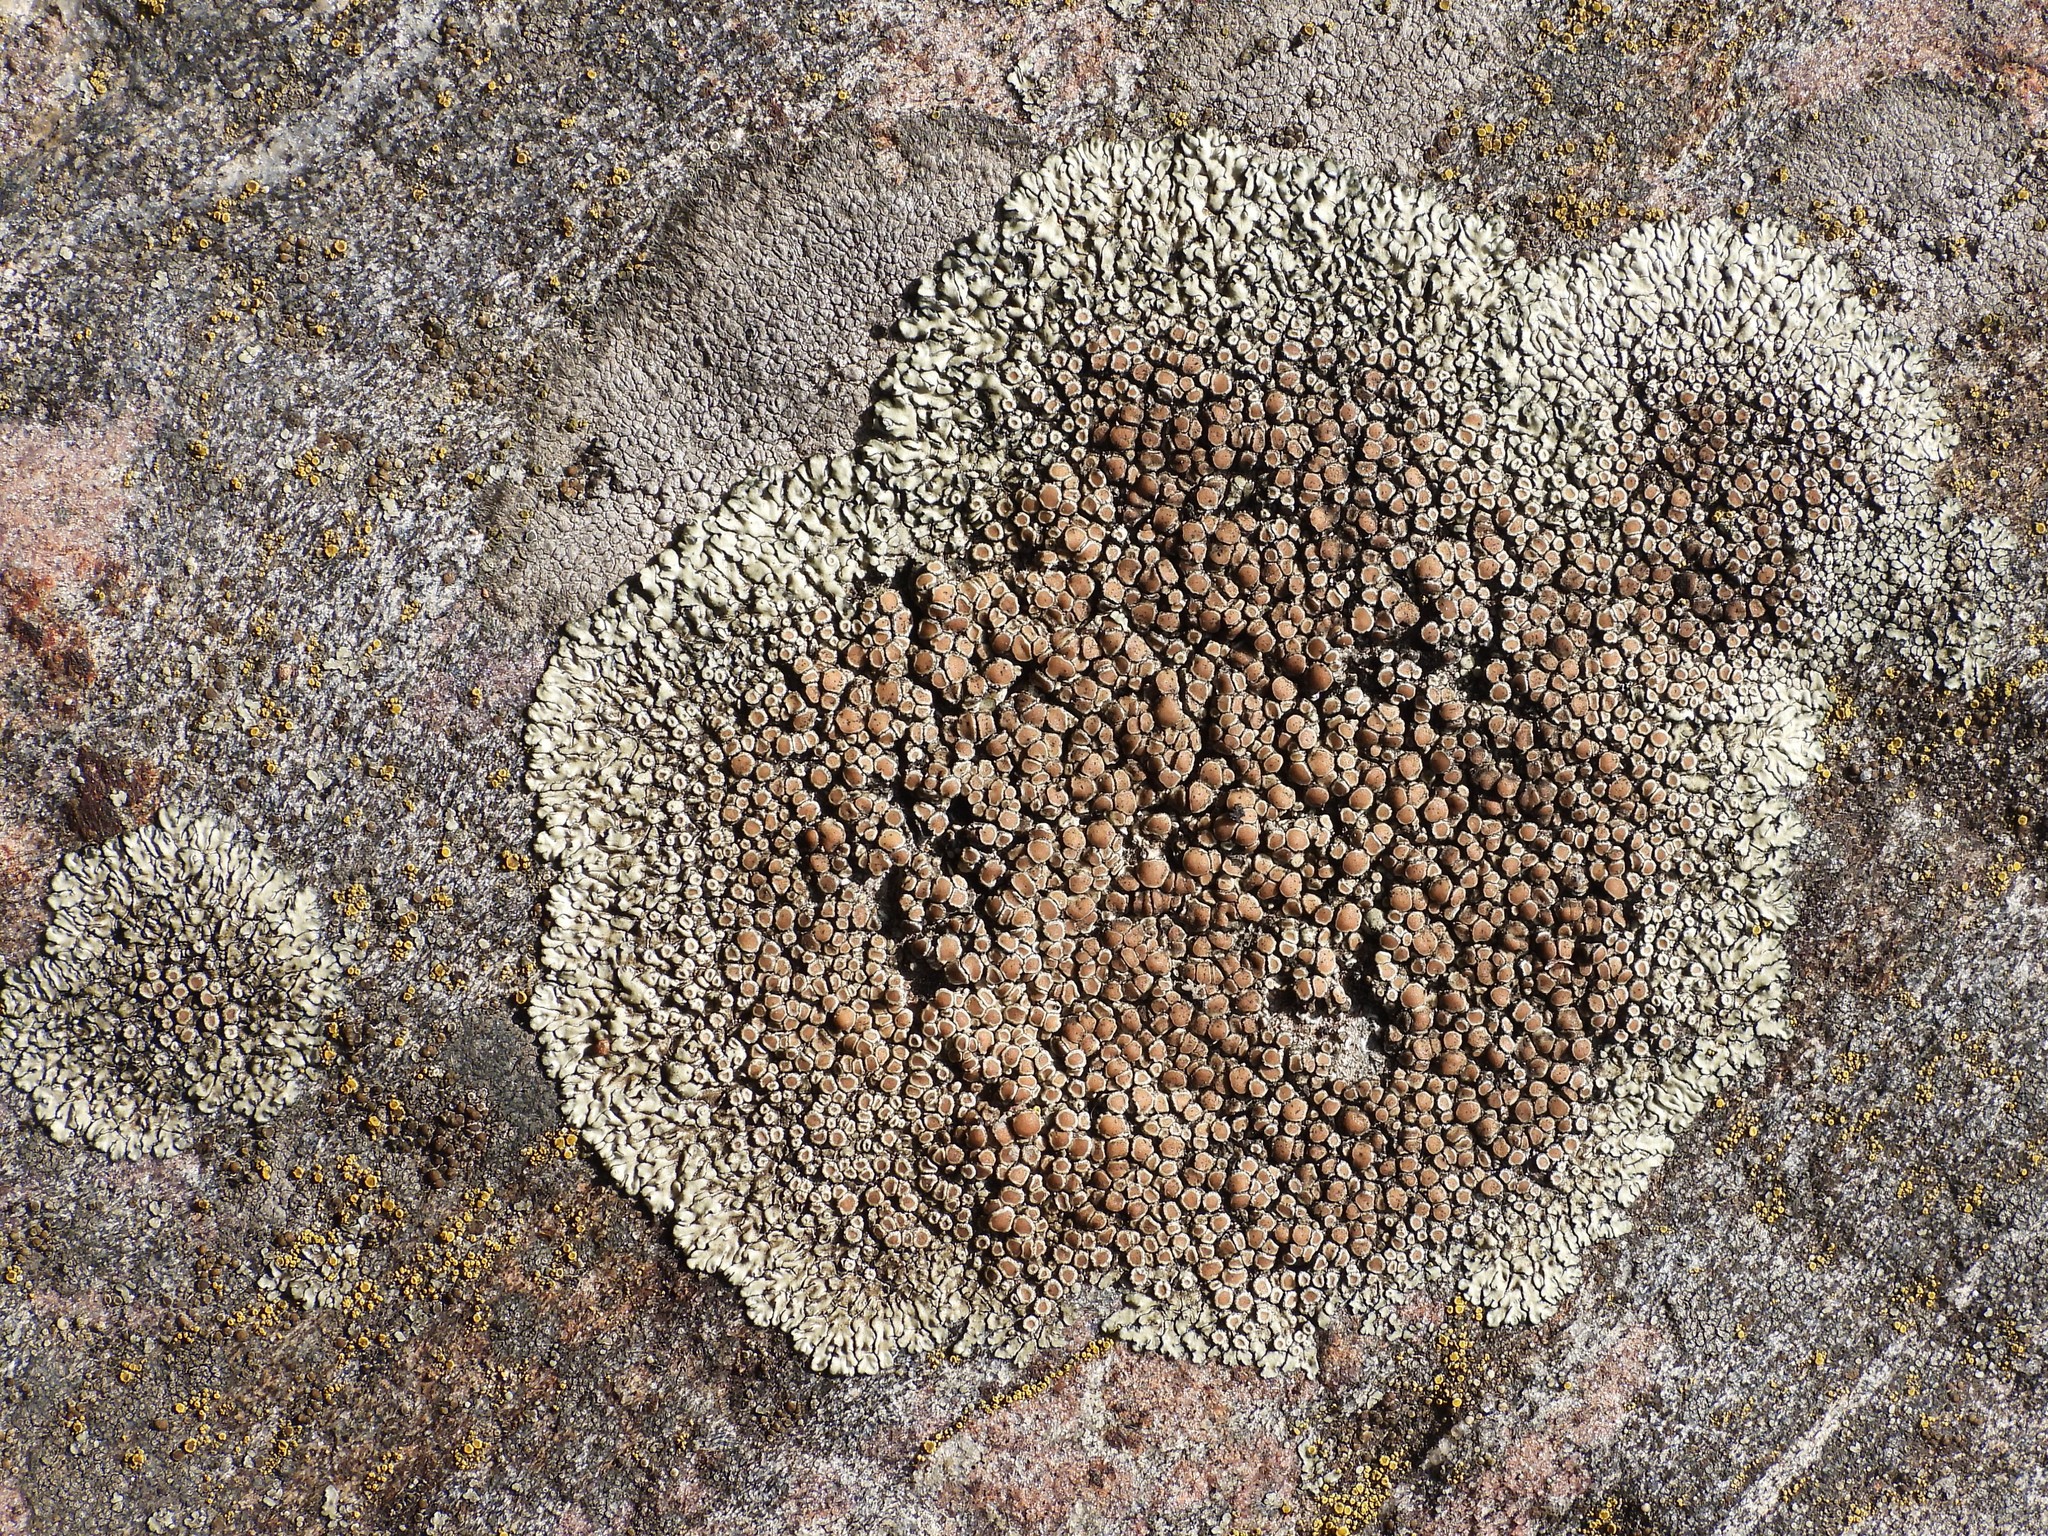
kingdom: Fungi
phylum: Ascomycota
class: Lecanoromycetes
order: Lecanorales
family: Lecanoraceae
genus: Protoparmeliopsis
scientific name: Protoparmeliopsis muralis
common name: Stonewall rim lichen
